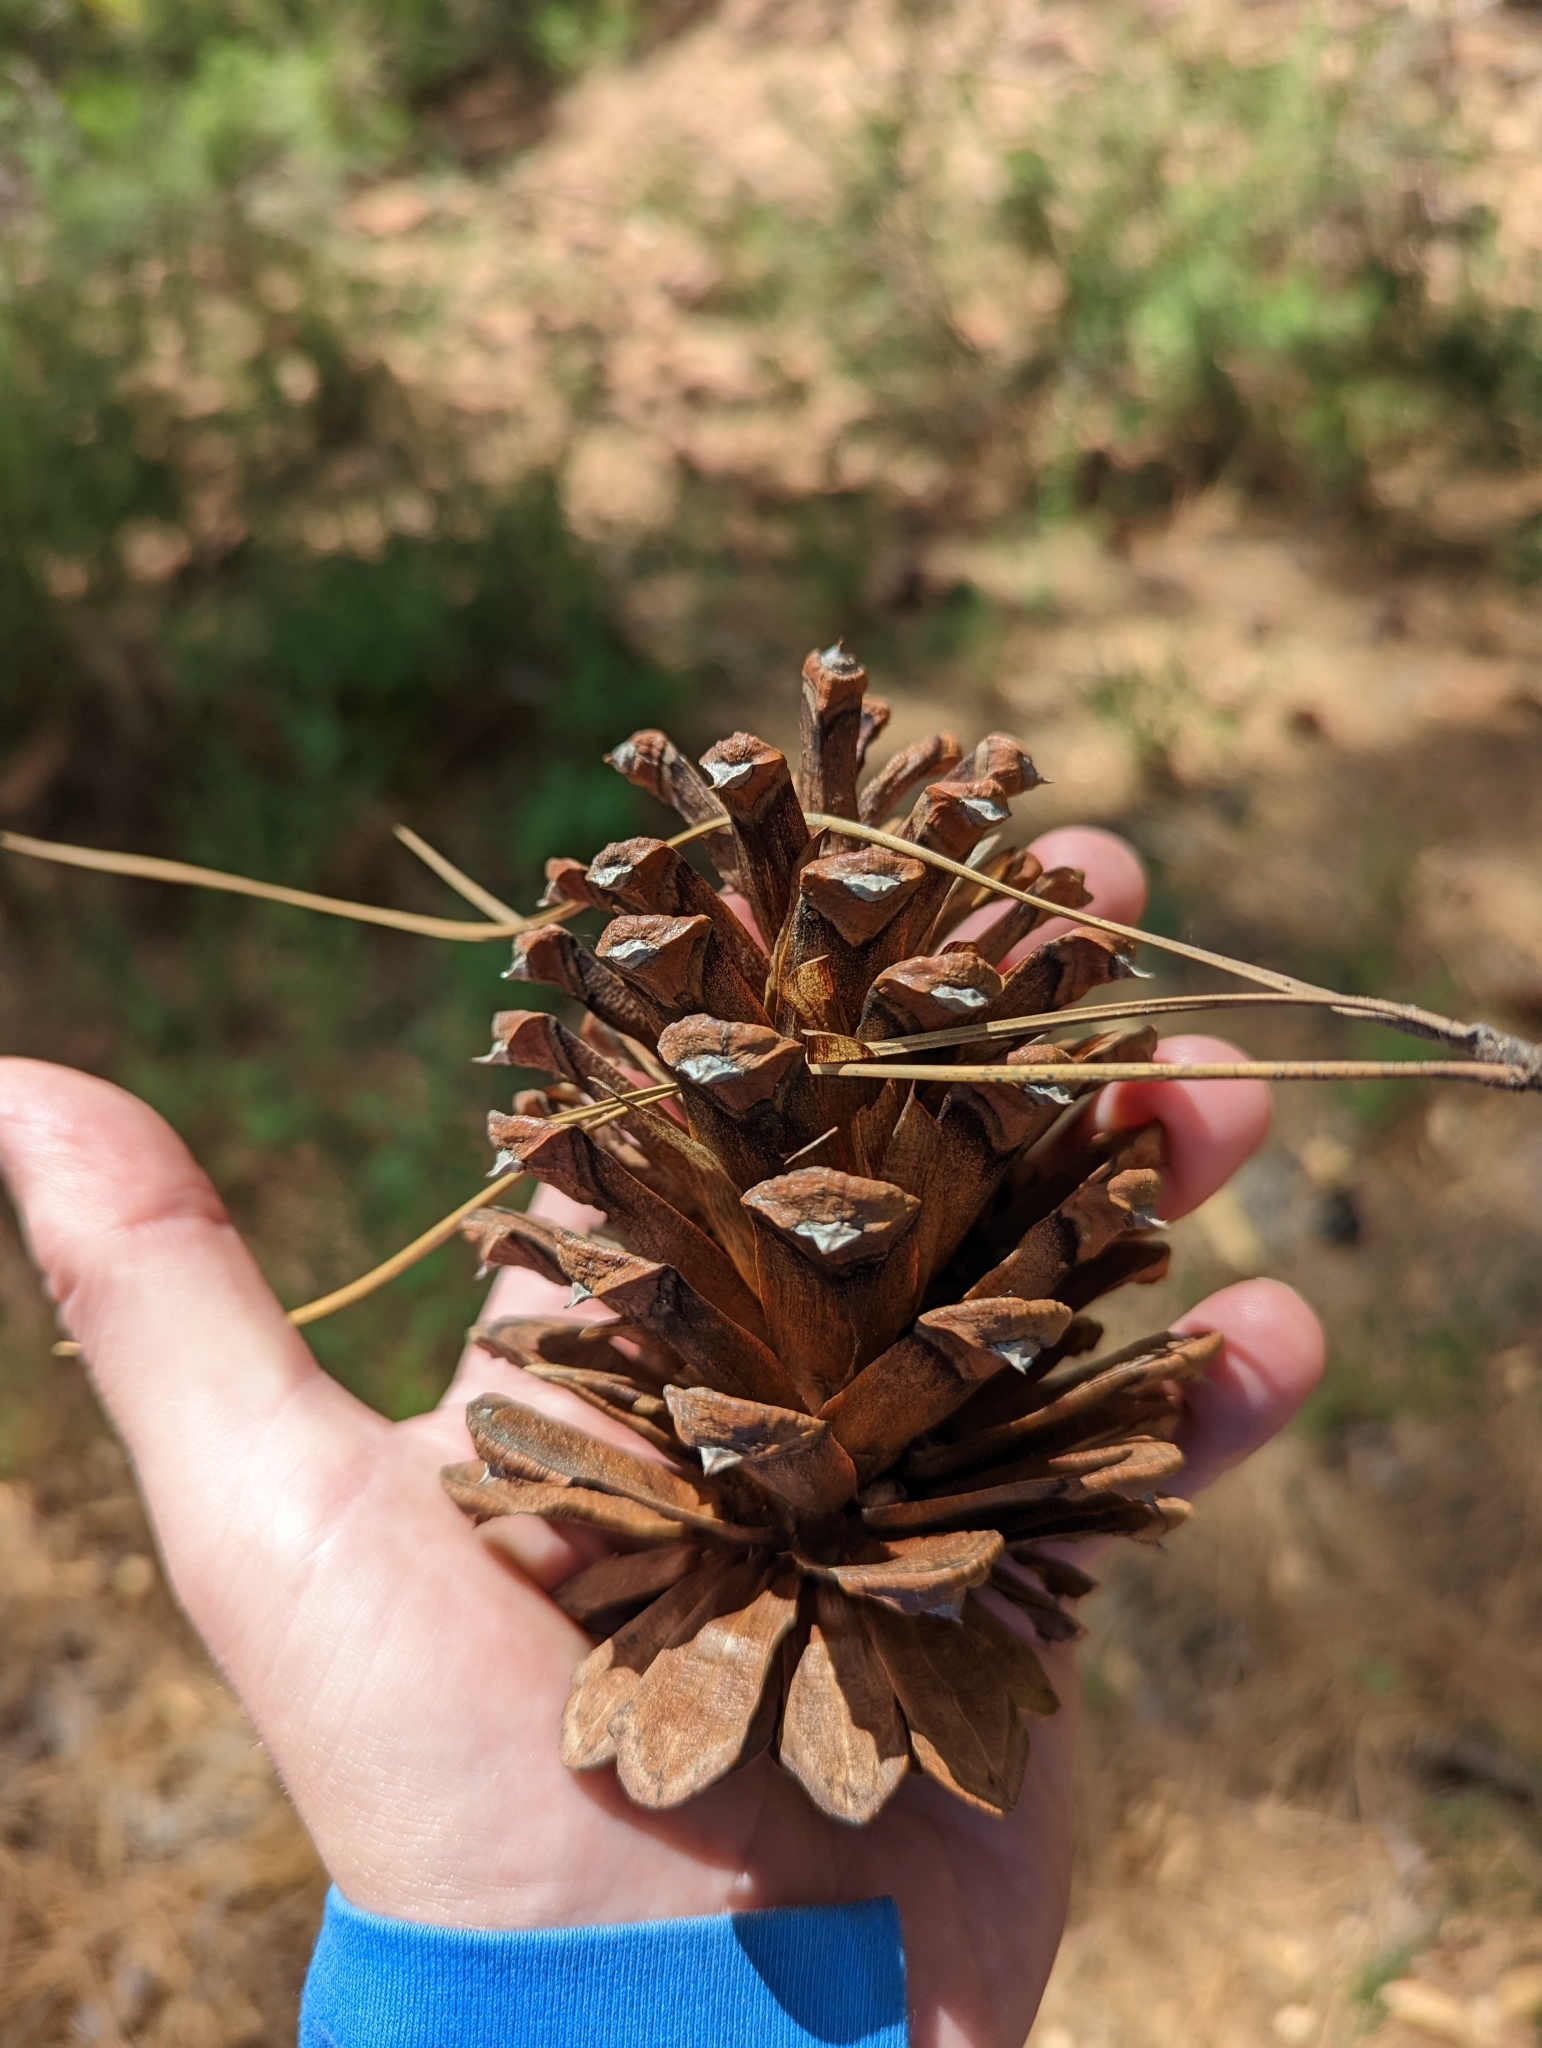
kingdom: Plantae
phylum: Tracheophyta
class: Pinopsida
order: Pinales
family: Pinaceae
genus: Pinus
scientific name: Pinus ponderosa
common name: Western yellow-pine
